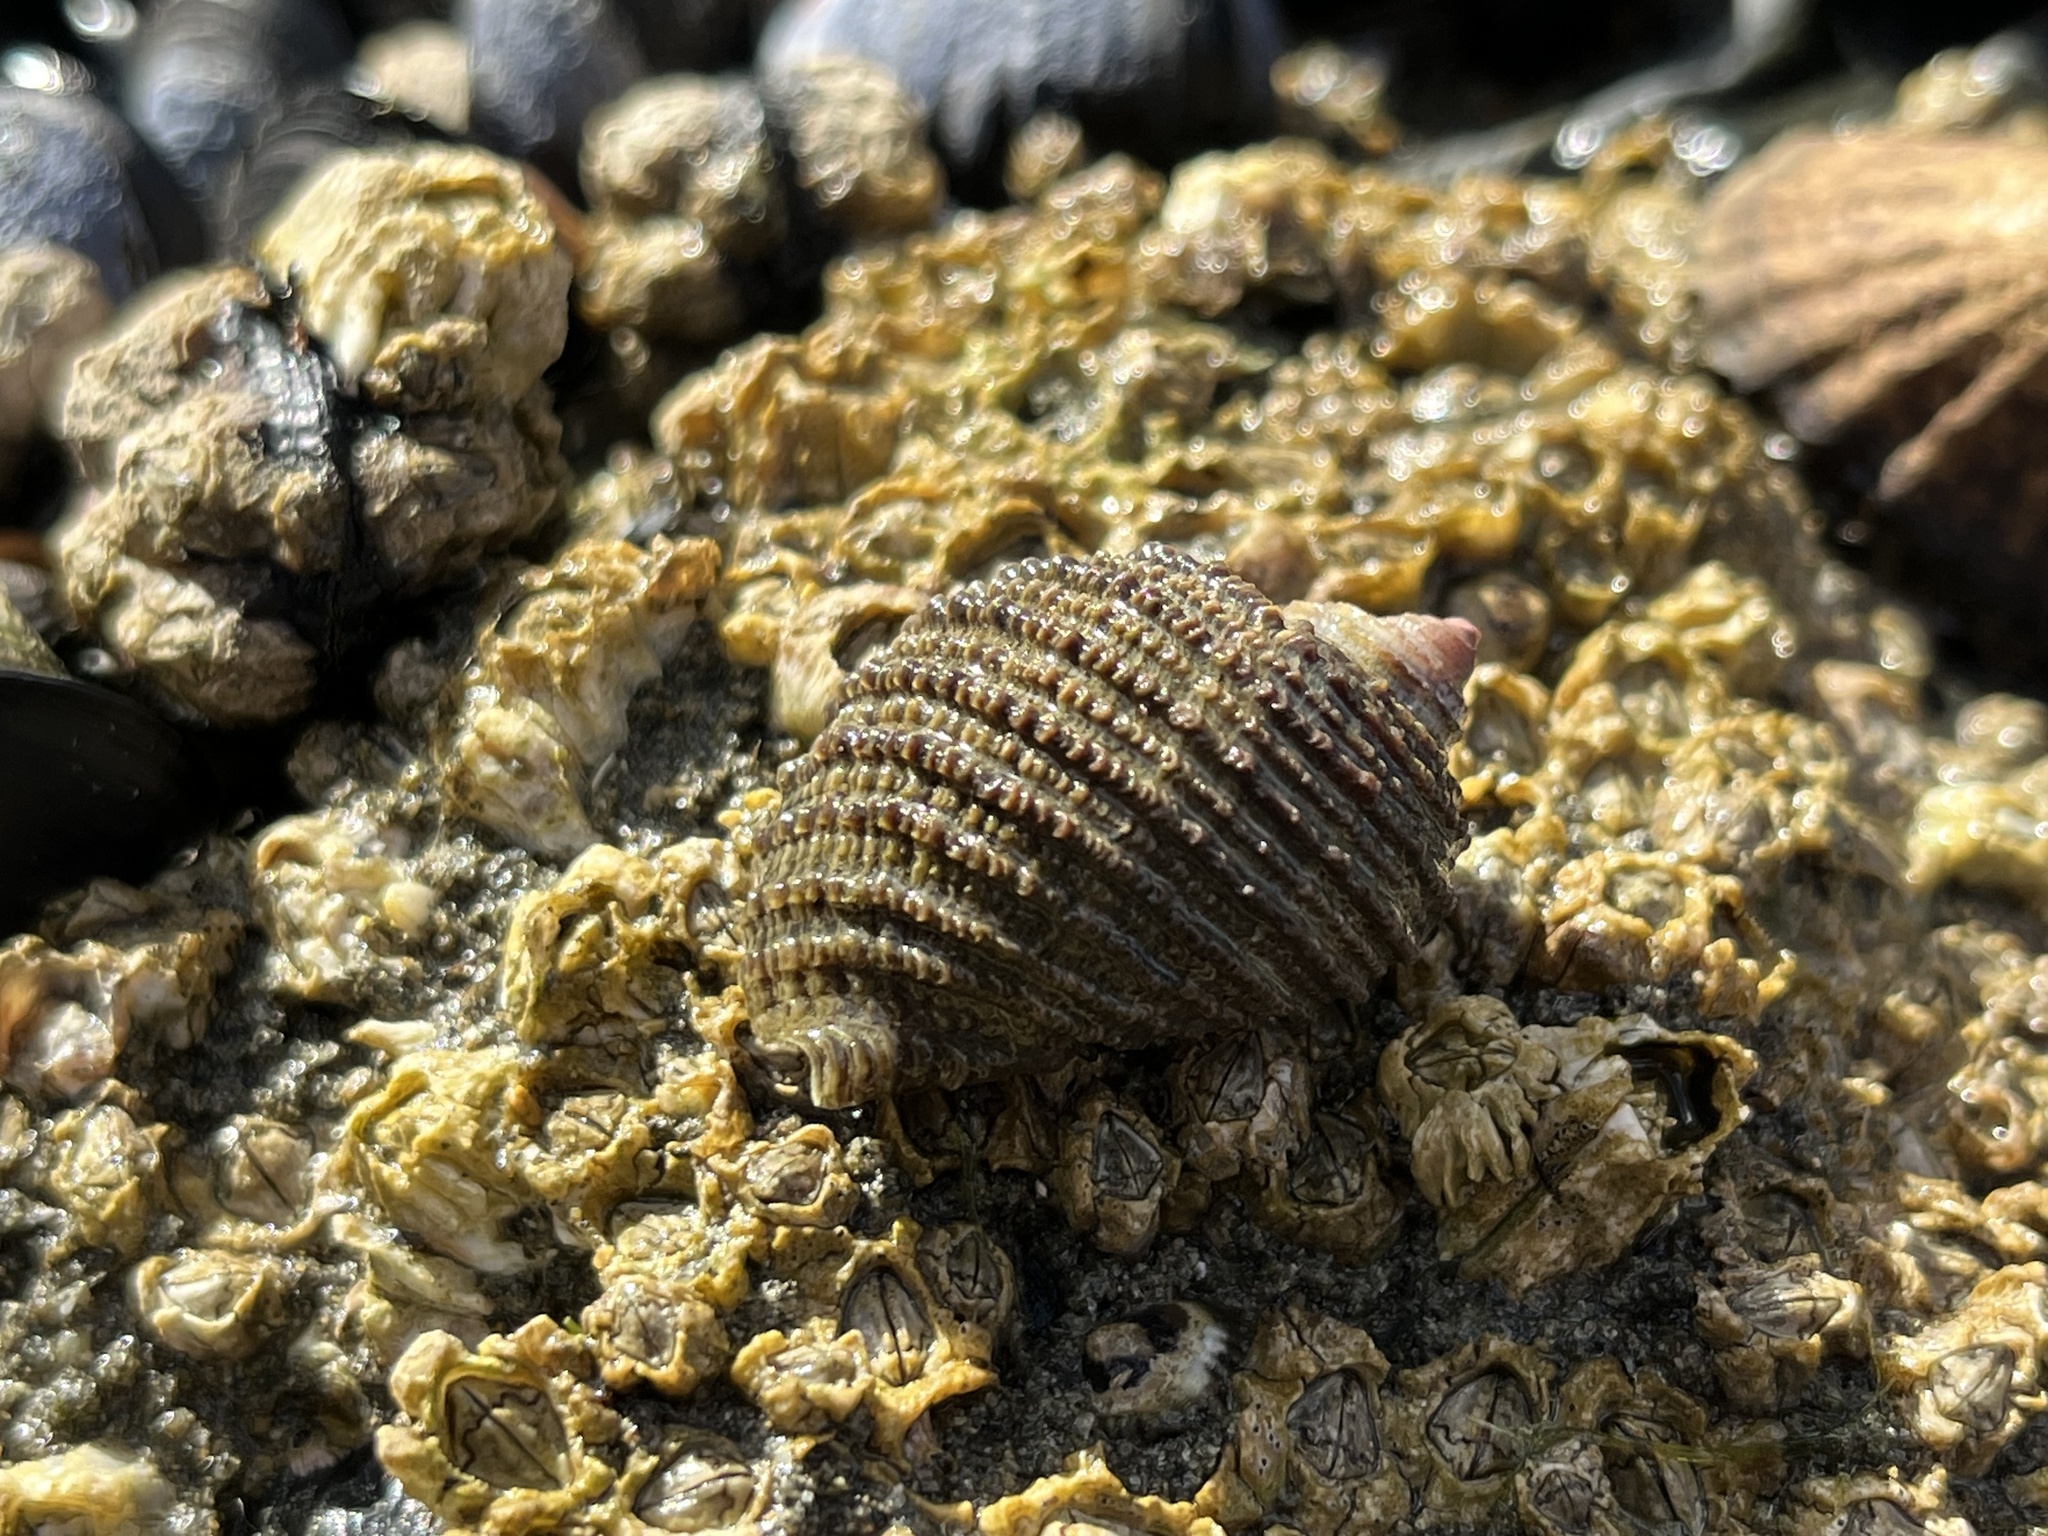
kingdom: Animalia
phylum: Mollusca
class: Gastropoda
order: Neogastropoda
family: Muricidae
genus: Acanthina
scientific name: Acanthina monodon
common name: One-toothed thais
